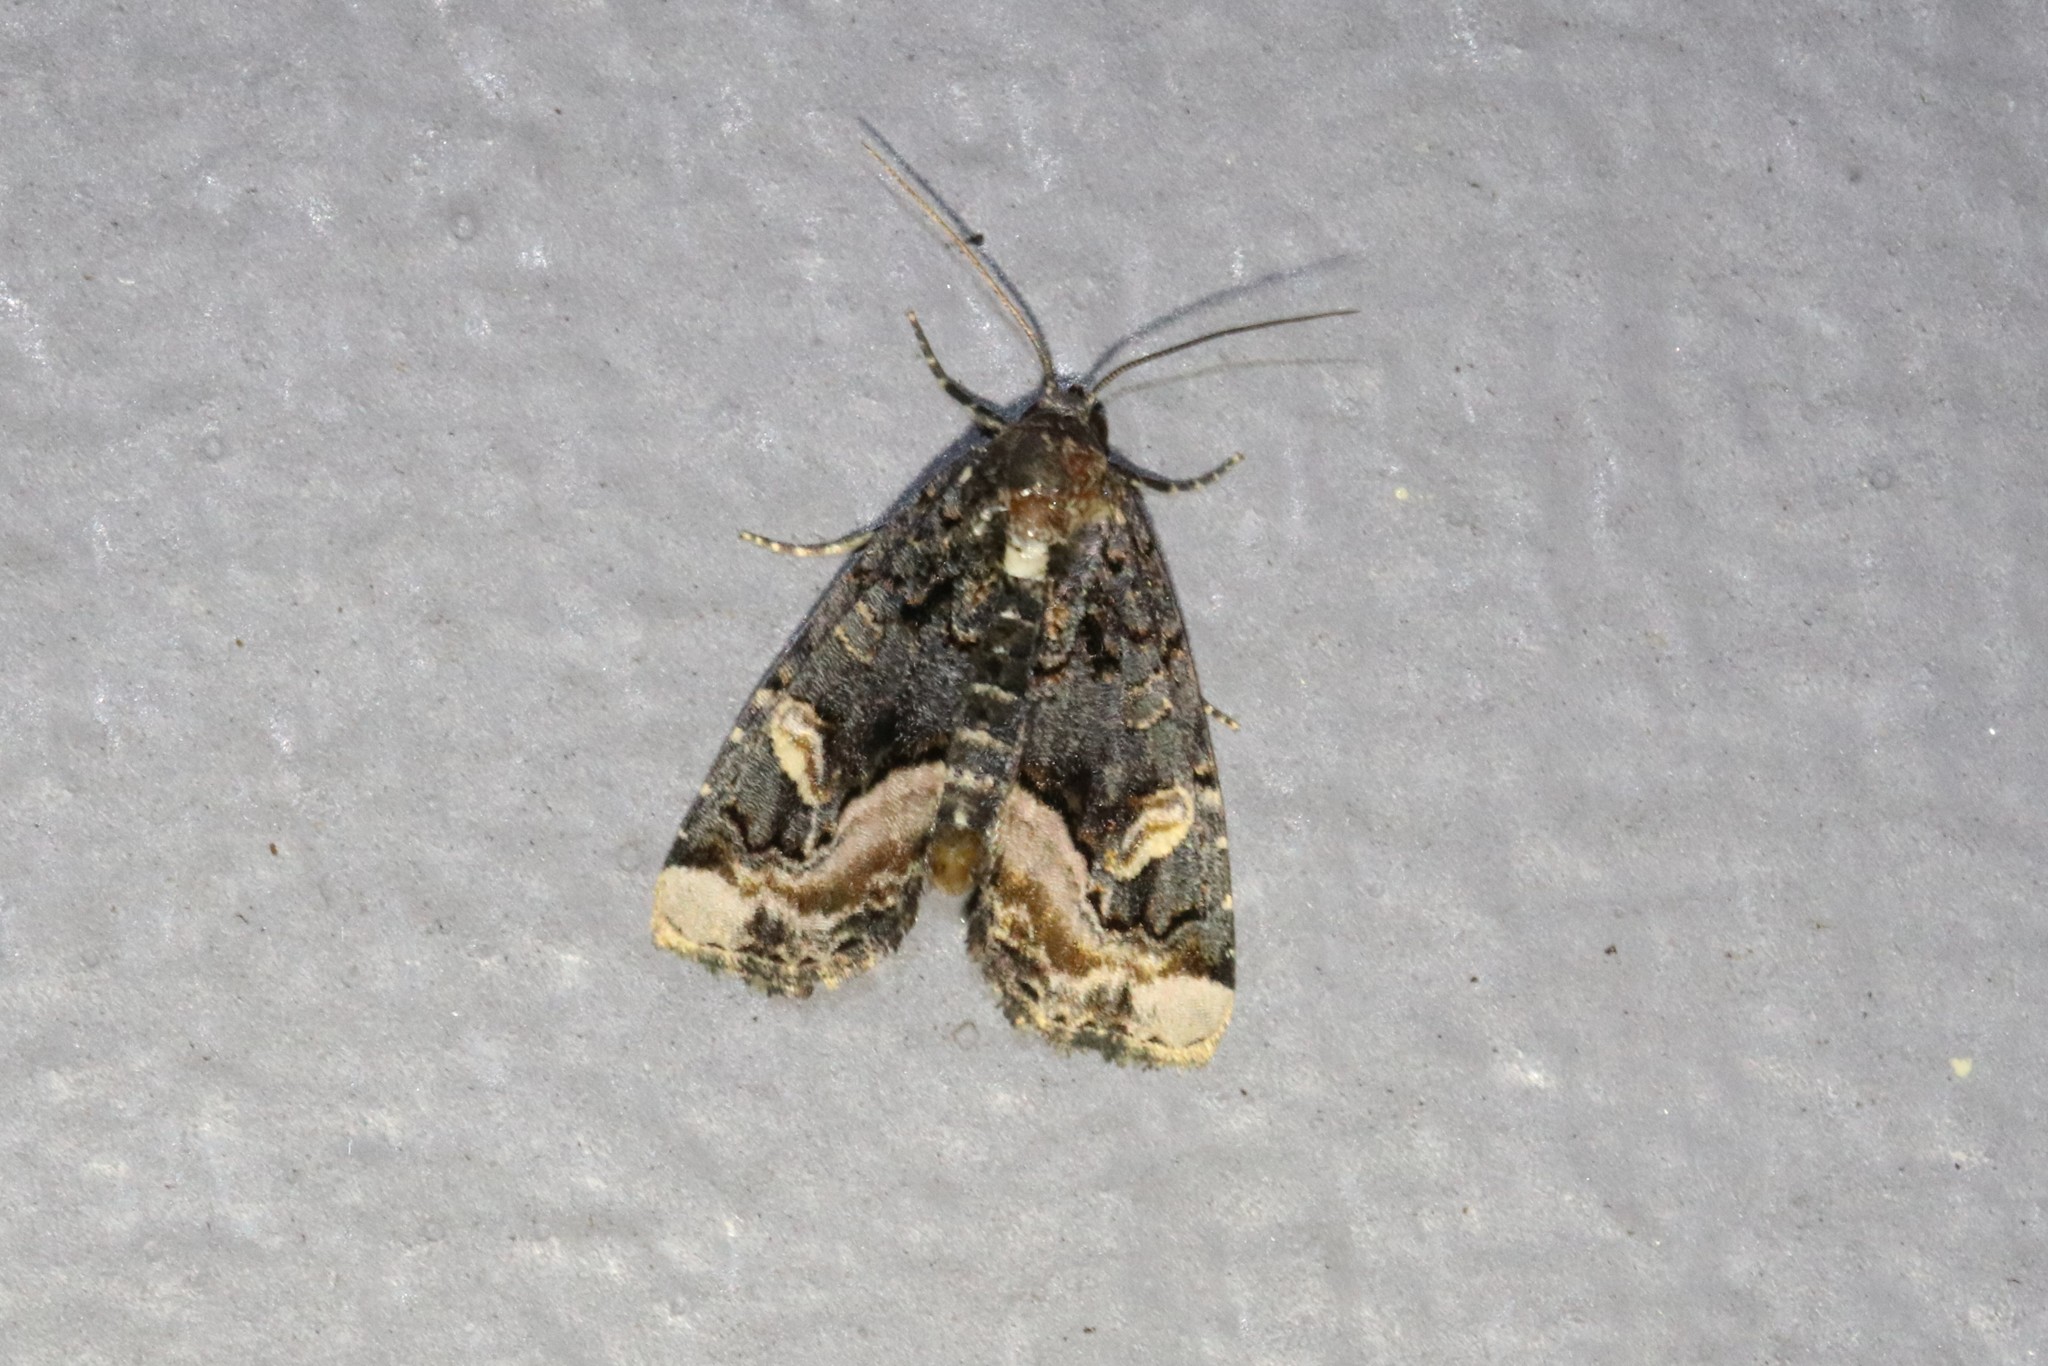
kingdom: Animalia
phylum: Arthropoda
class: Insecta
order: Lepidoptera
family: Noctuidae
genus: Homophoberia
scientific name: Homophoberia apicosa
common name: Black wedge-spot
